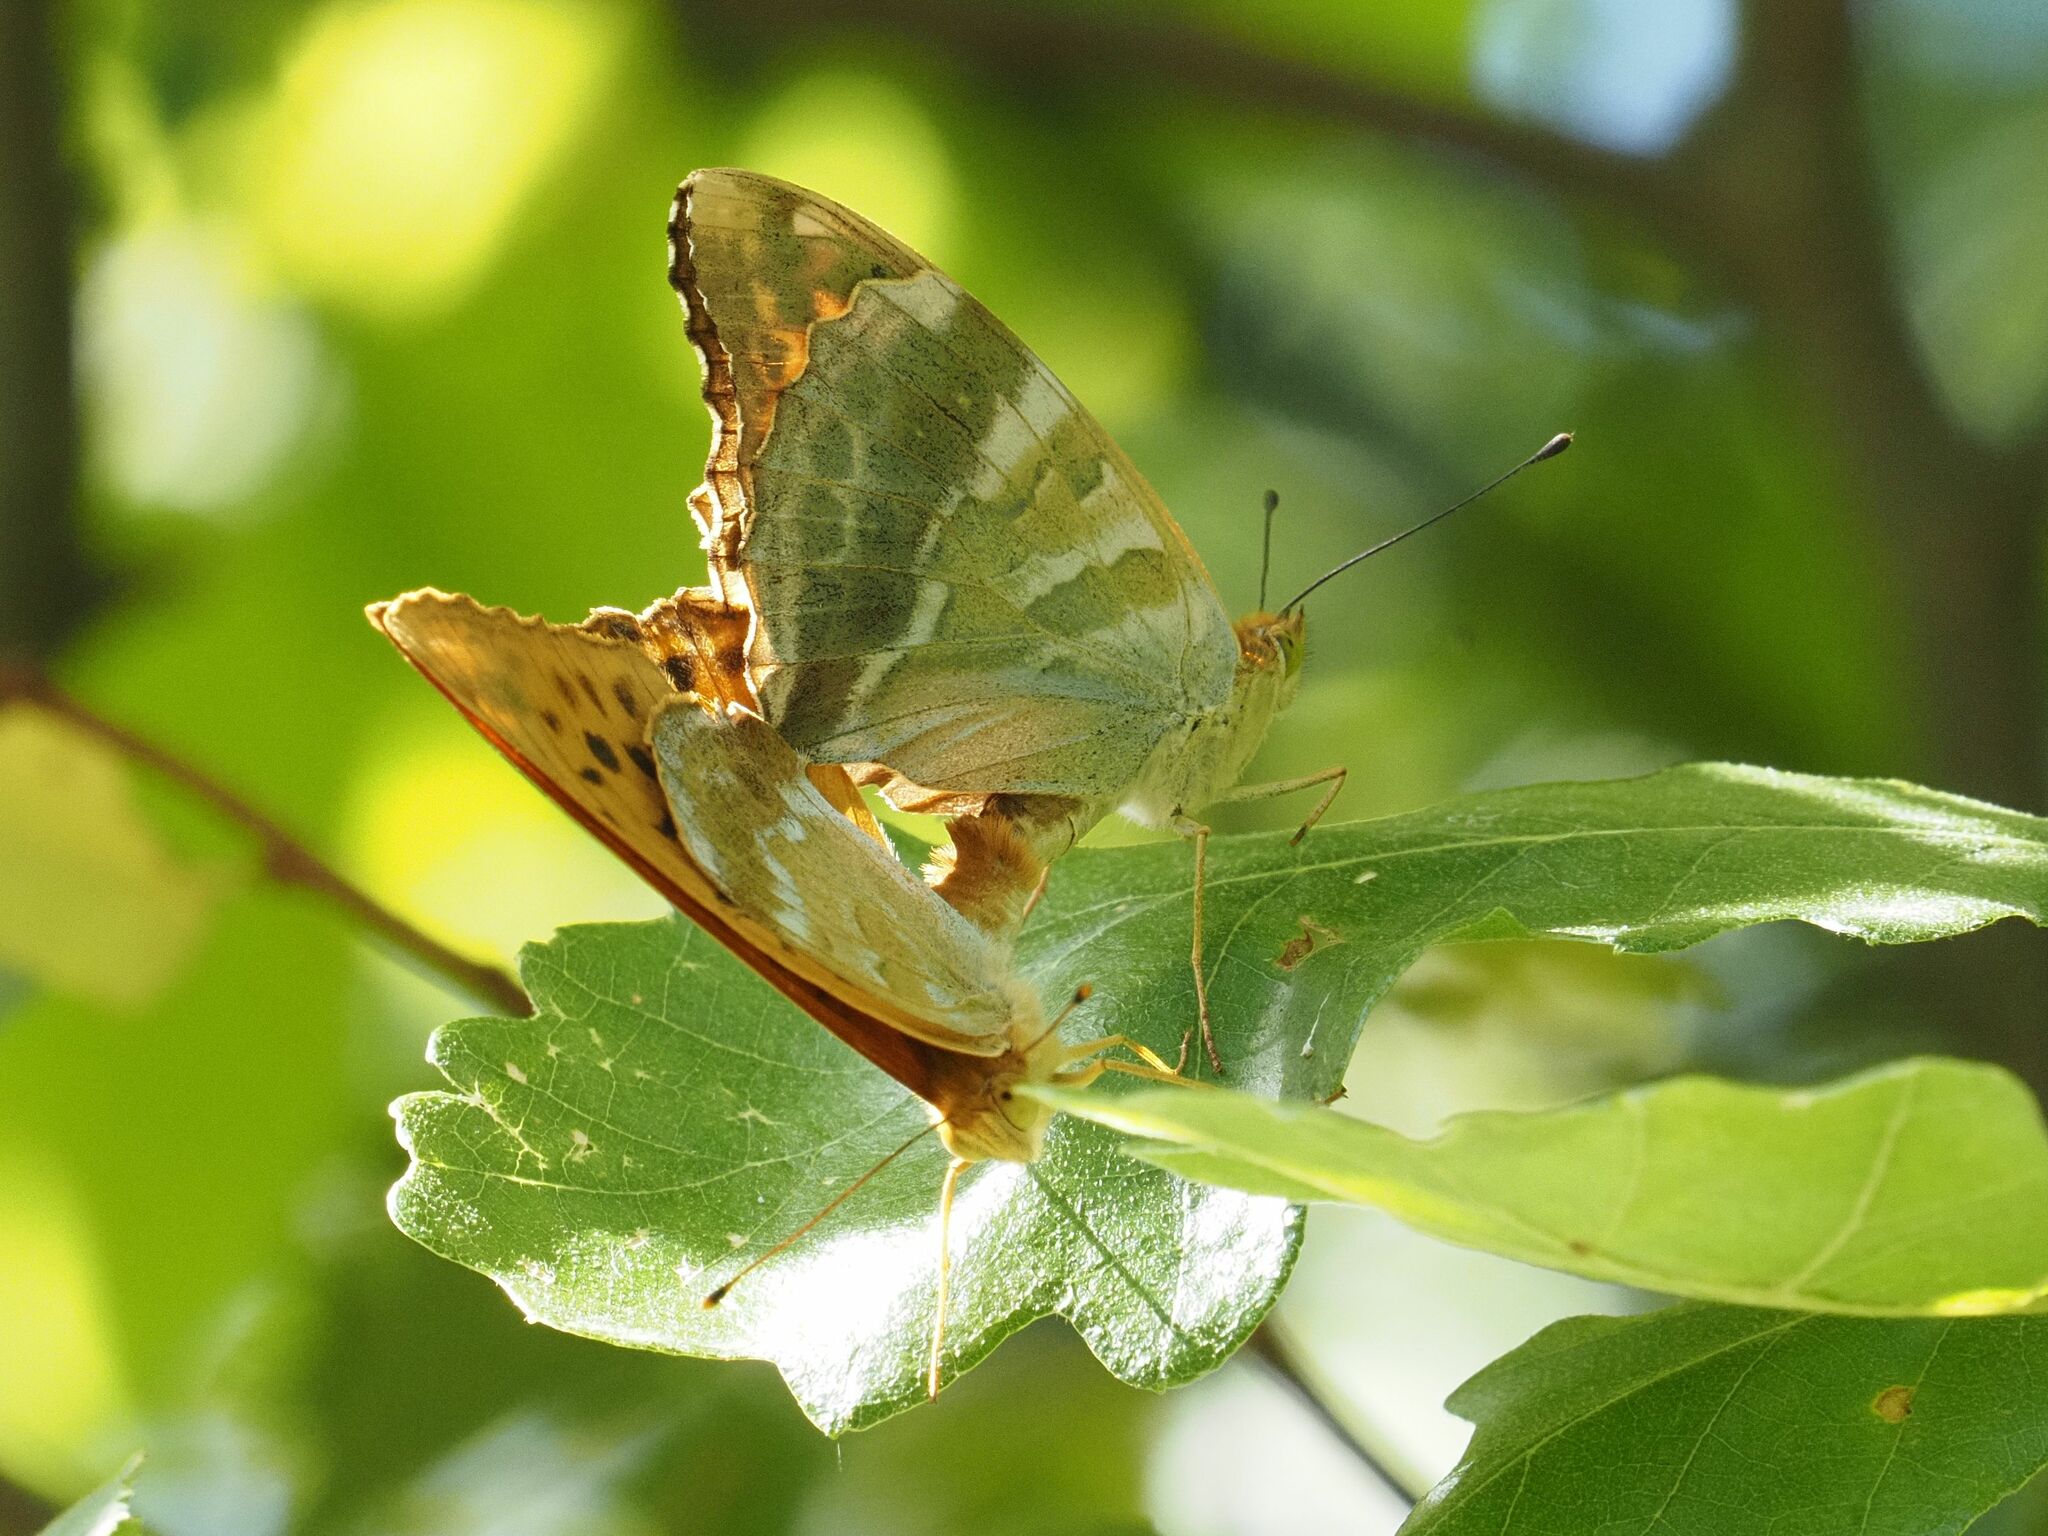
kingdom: Animalia
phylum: Arthropoda
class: Insecta
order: Lepidoptera
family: Nymphalidae
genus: Argynnis
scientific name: Argynnis paphia
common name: Silver-washed fritillary
